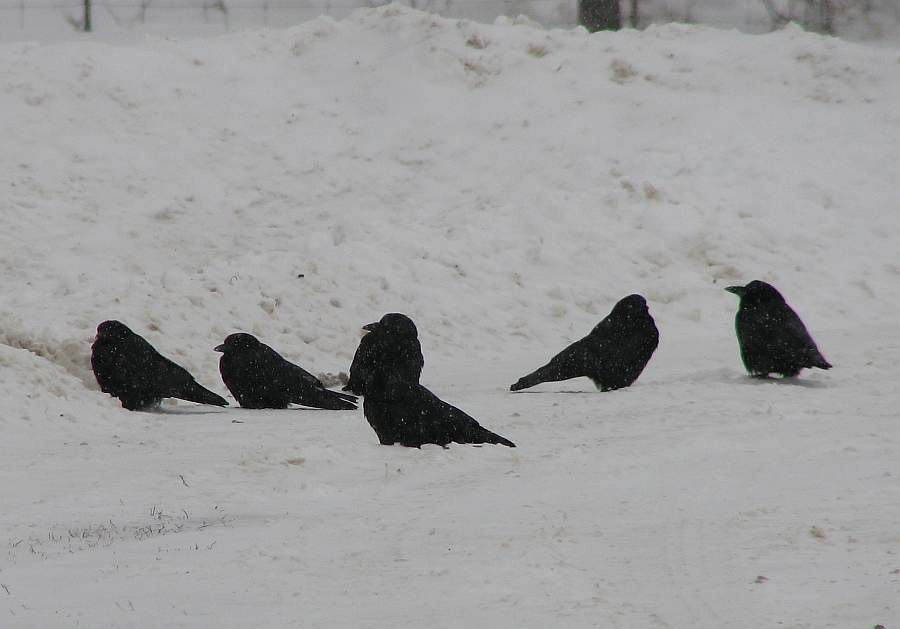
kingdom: Animalia
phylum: Chordata
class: Aves
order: Passeriformes
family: Corvidae
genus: Corvus
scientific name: Corvus brachyrhynchos
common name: American crow
